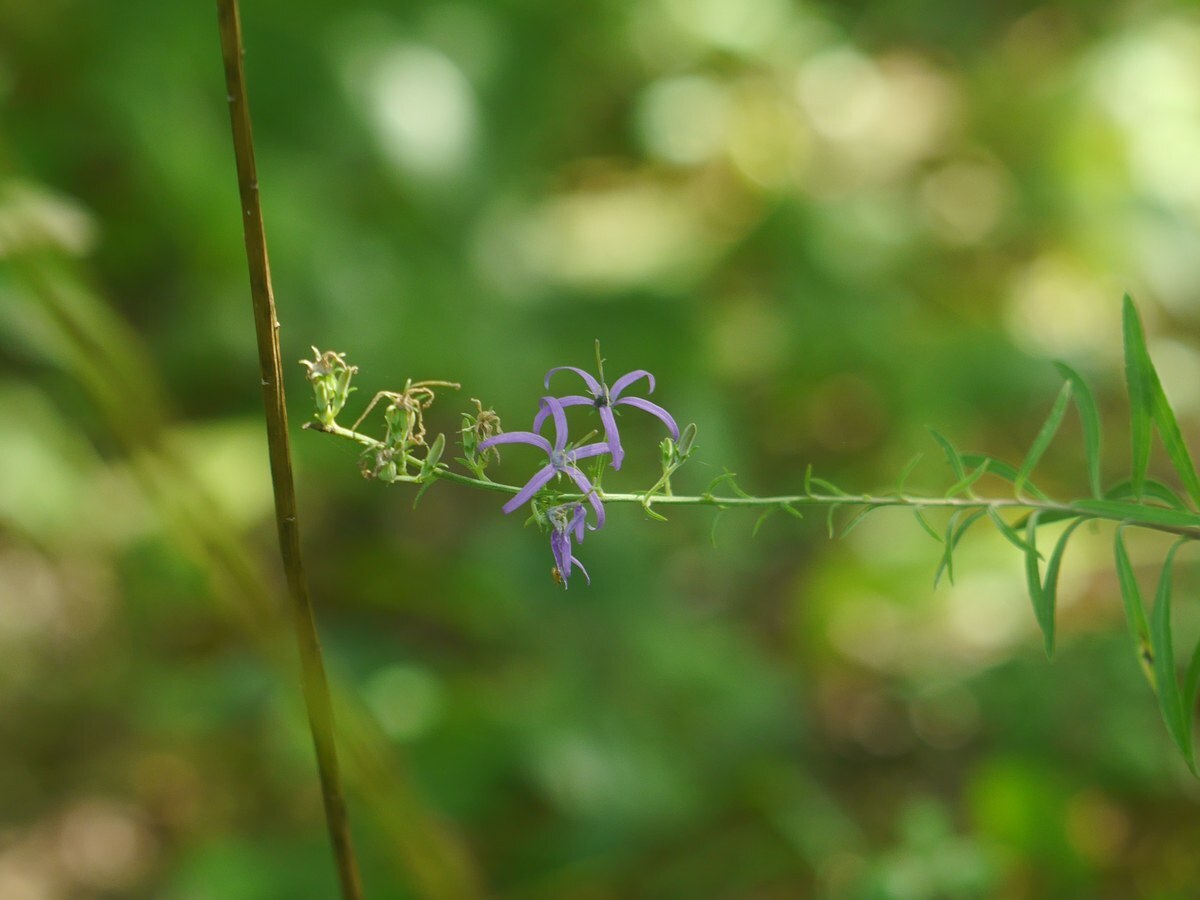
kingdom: Plantae
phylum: Tracheophyta
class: Magnoliopsida
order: Asterales
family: Campanulaceae
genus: Asyneuma
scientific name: Asyneuma canescens
